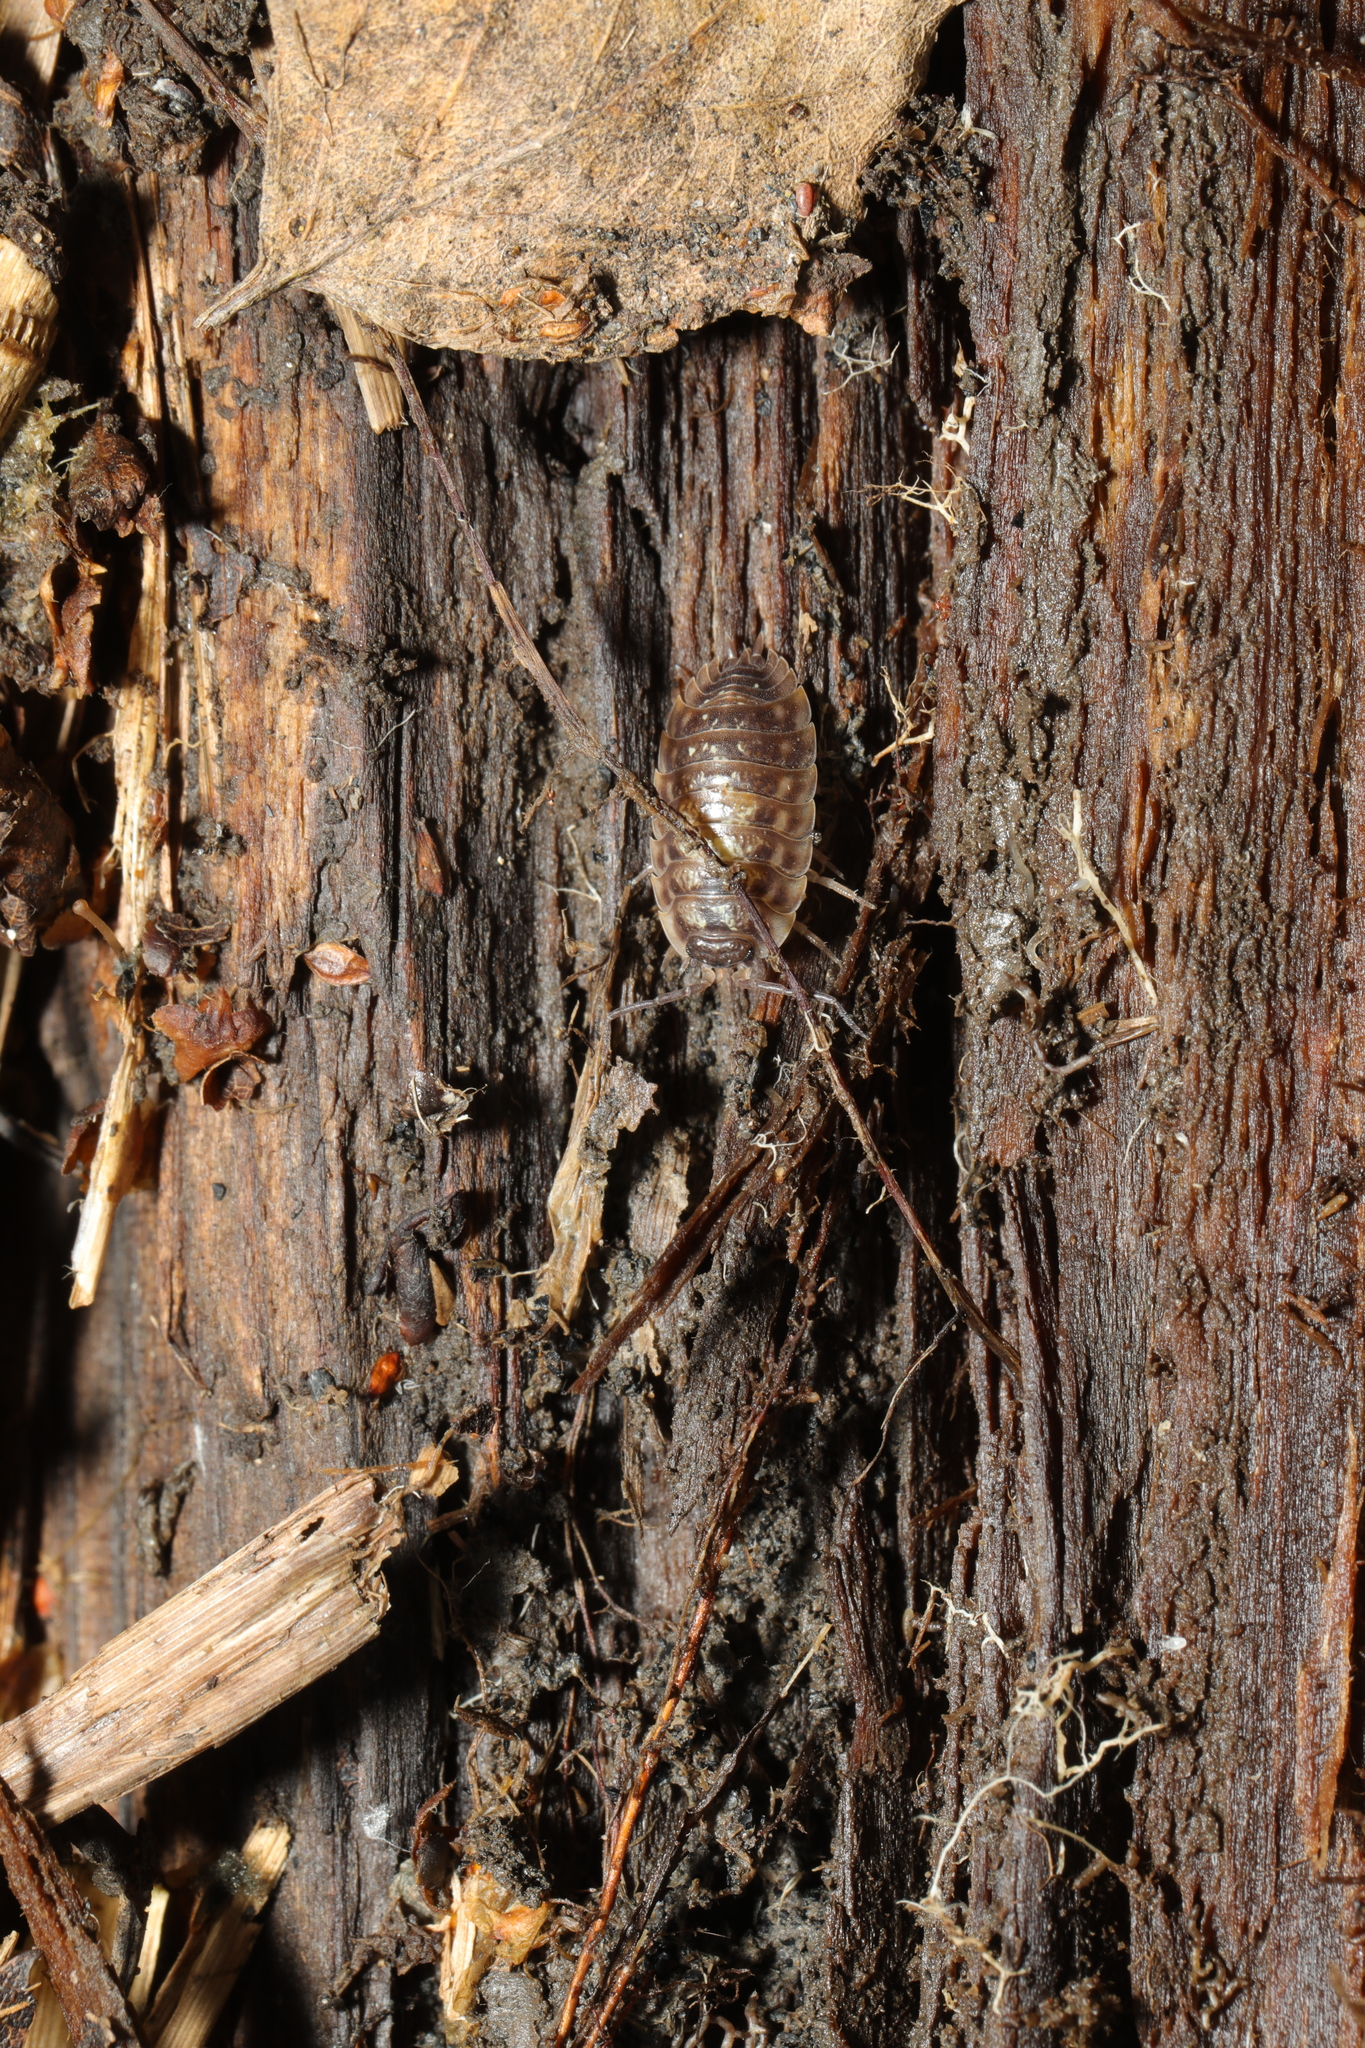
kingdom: Animalia
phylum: Arthropoda
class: Malacostraca
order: Isopoda
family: Oniscidae
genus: Oniscus
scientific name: Oniscus asellus
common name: Common shiny woodlouse
